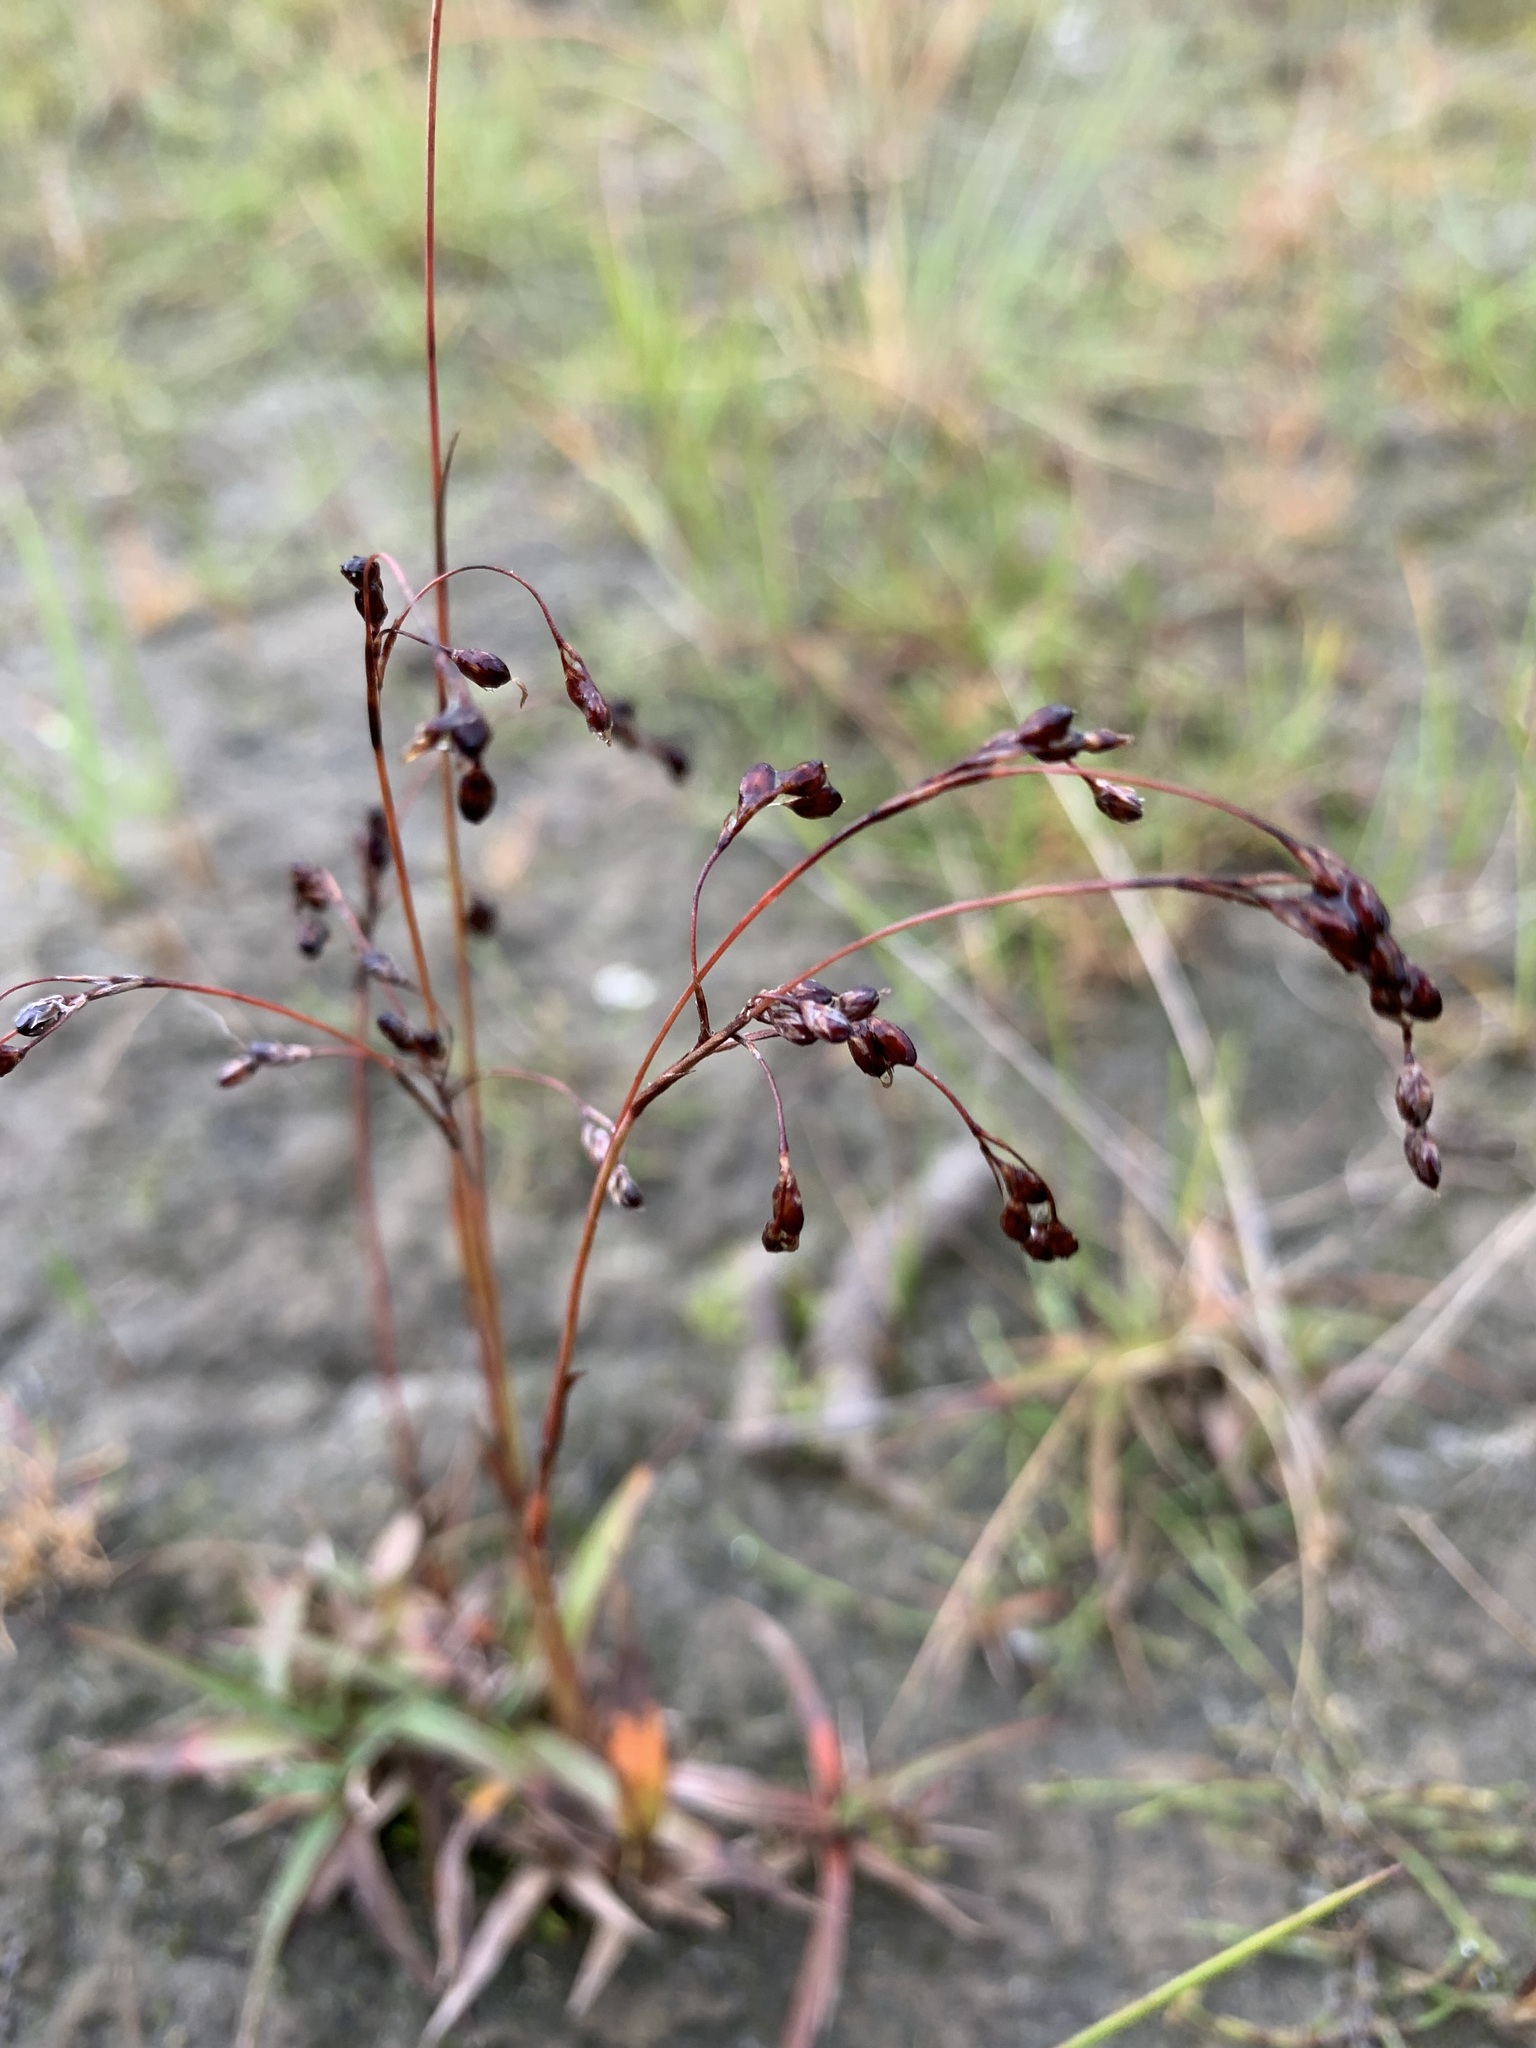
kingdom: Plantae
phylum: Tracheophyta
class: Liliopsida
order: Poales
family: Juncaceae
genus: Luzula
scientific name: Luzula wahlenbergii
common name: Wahlenberg's wood-rush
